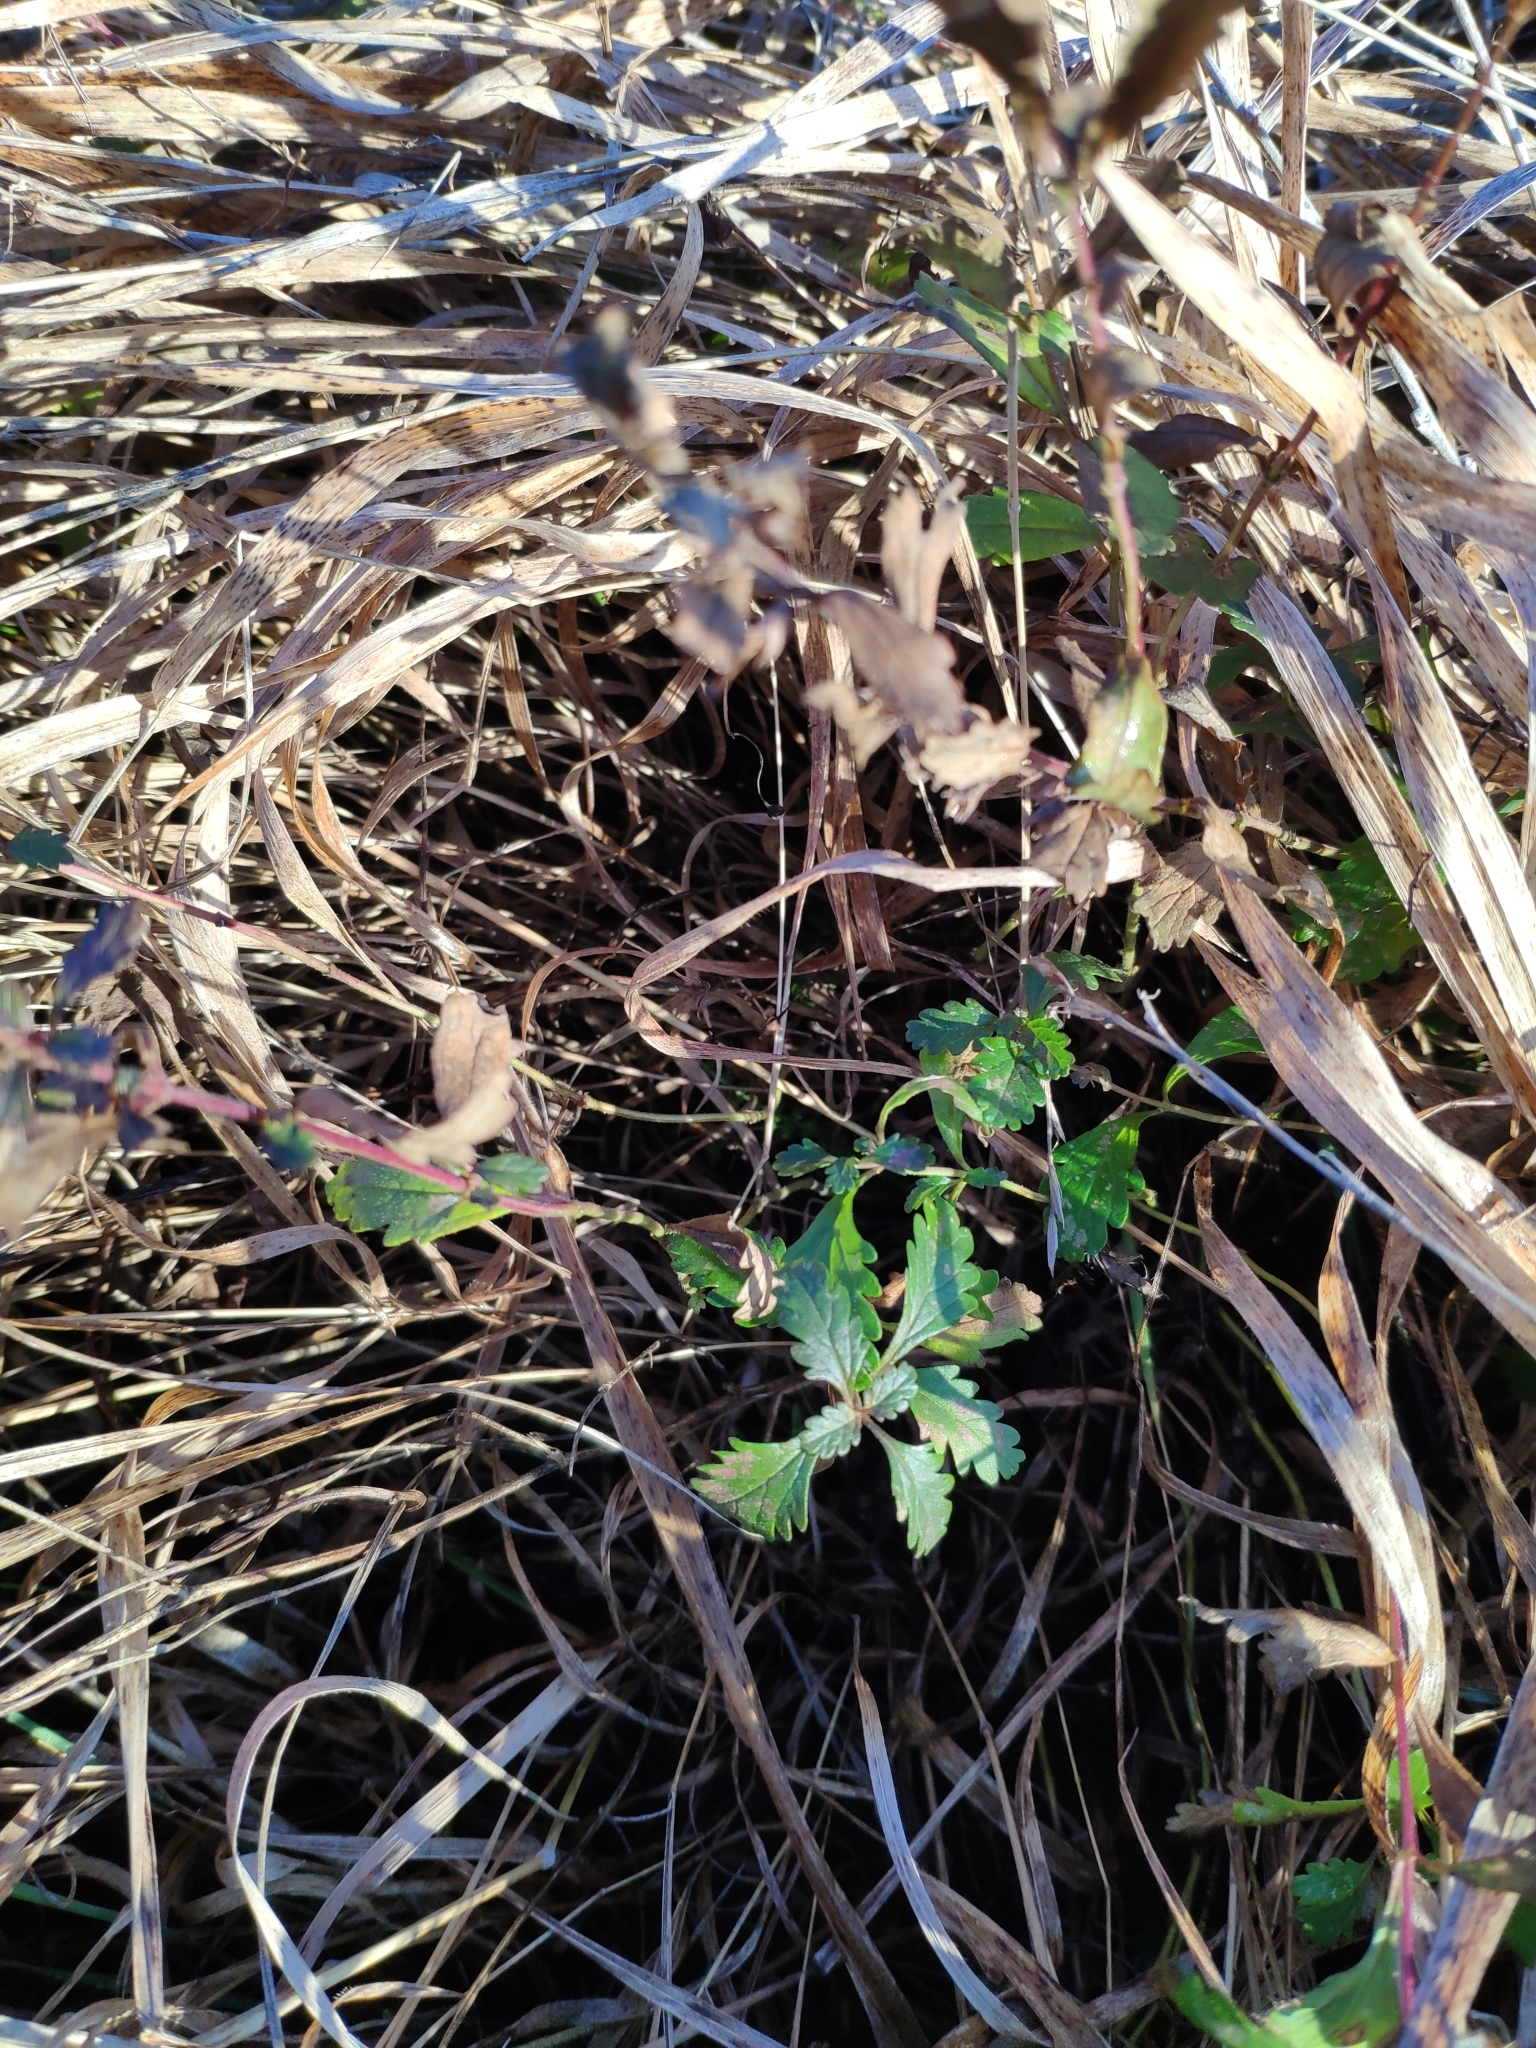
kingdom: Plantae
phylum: Tracheophyta
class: Magnoliopsida
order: Lamiales
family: Lamiaceae
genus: Teucrium
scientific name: Teucrium chamaedrys
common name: Wall germander
